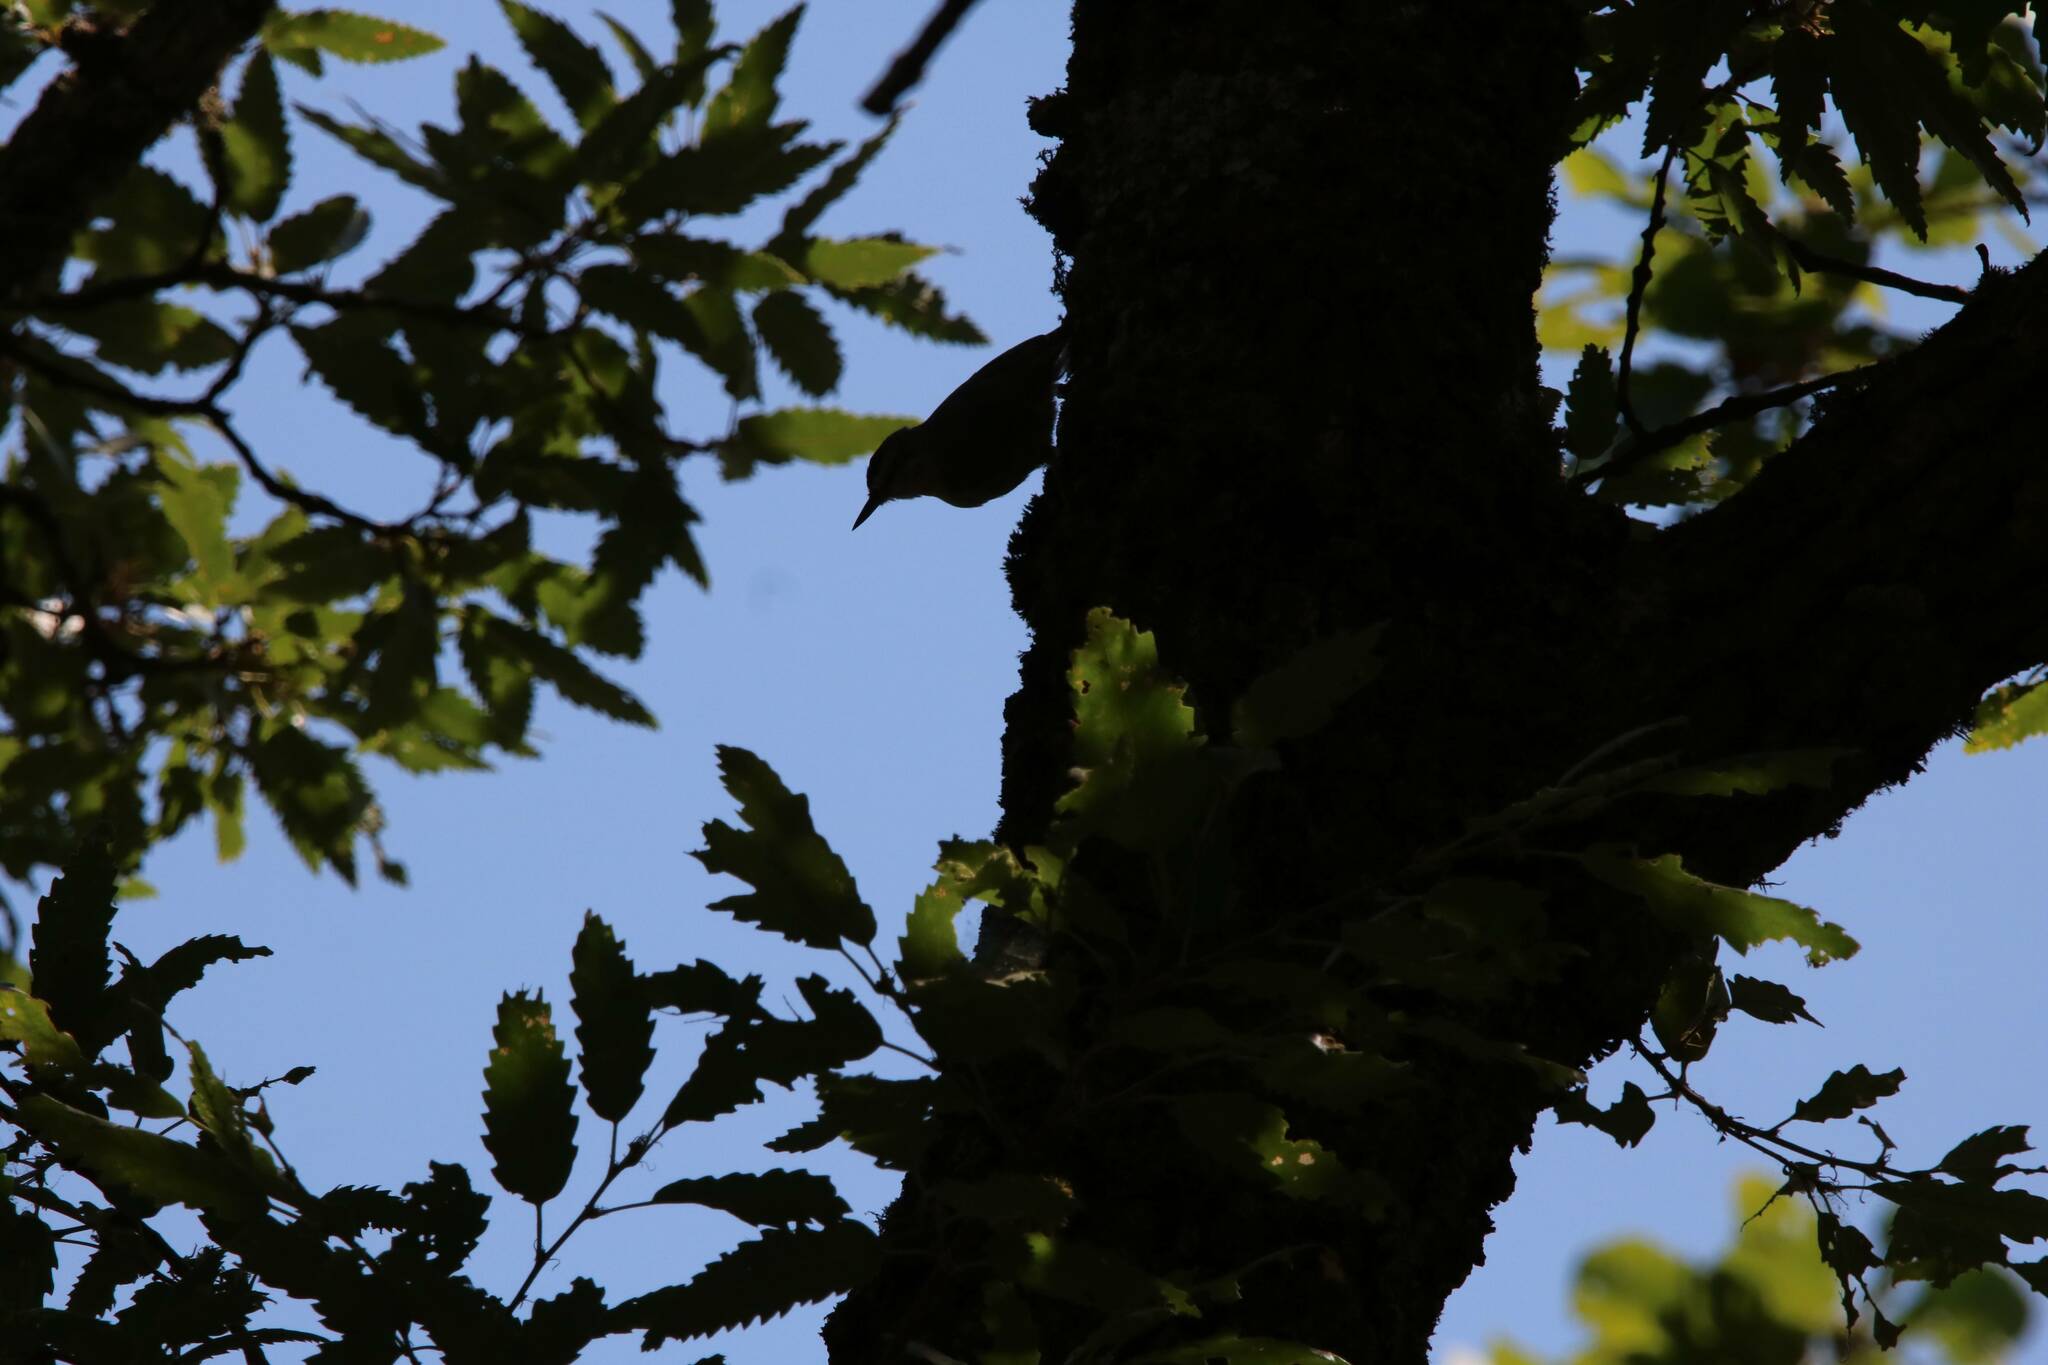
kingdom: Animalia
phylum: Chordata
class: Aves
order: Passeriformes
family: Sittidae
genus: Sitta
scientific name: Sitta ledanti
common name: Algerian nuthatch
